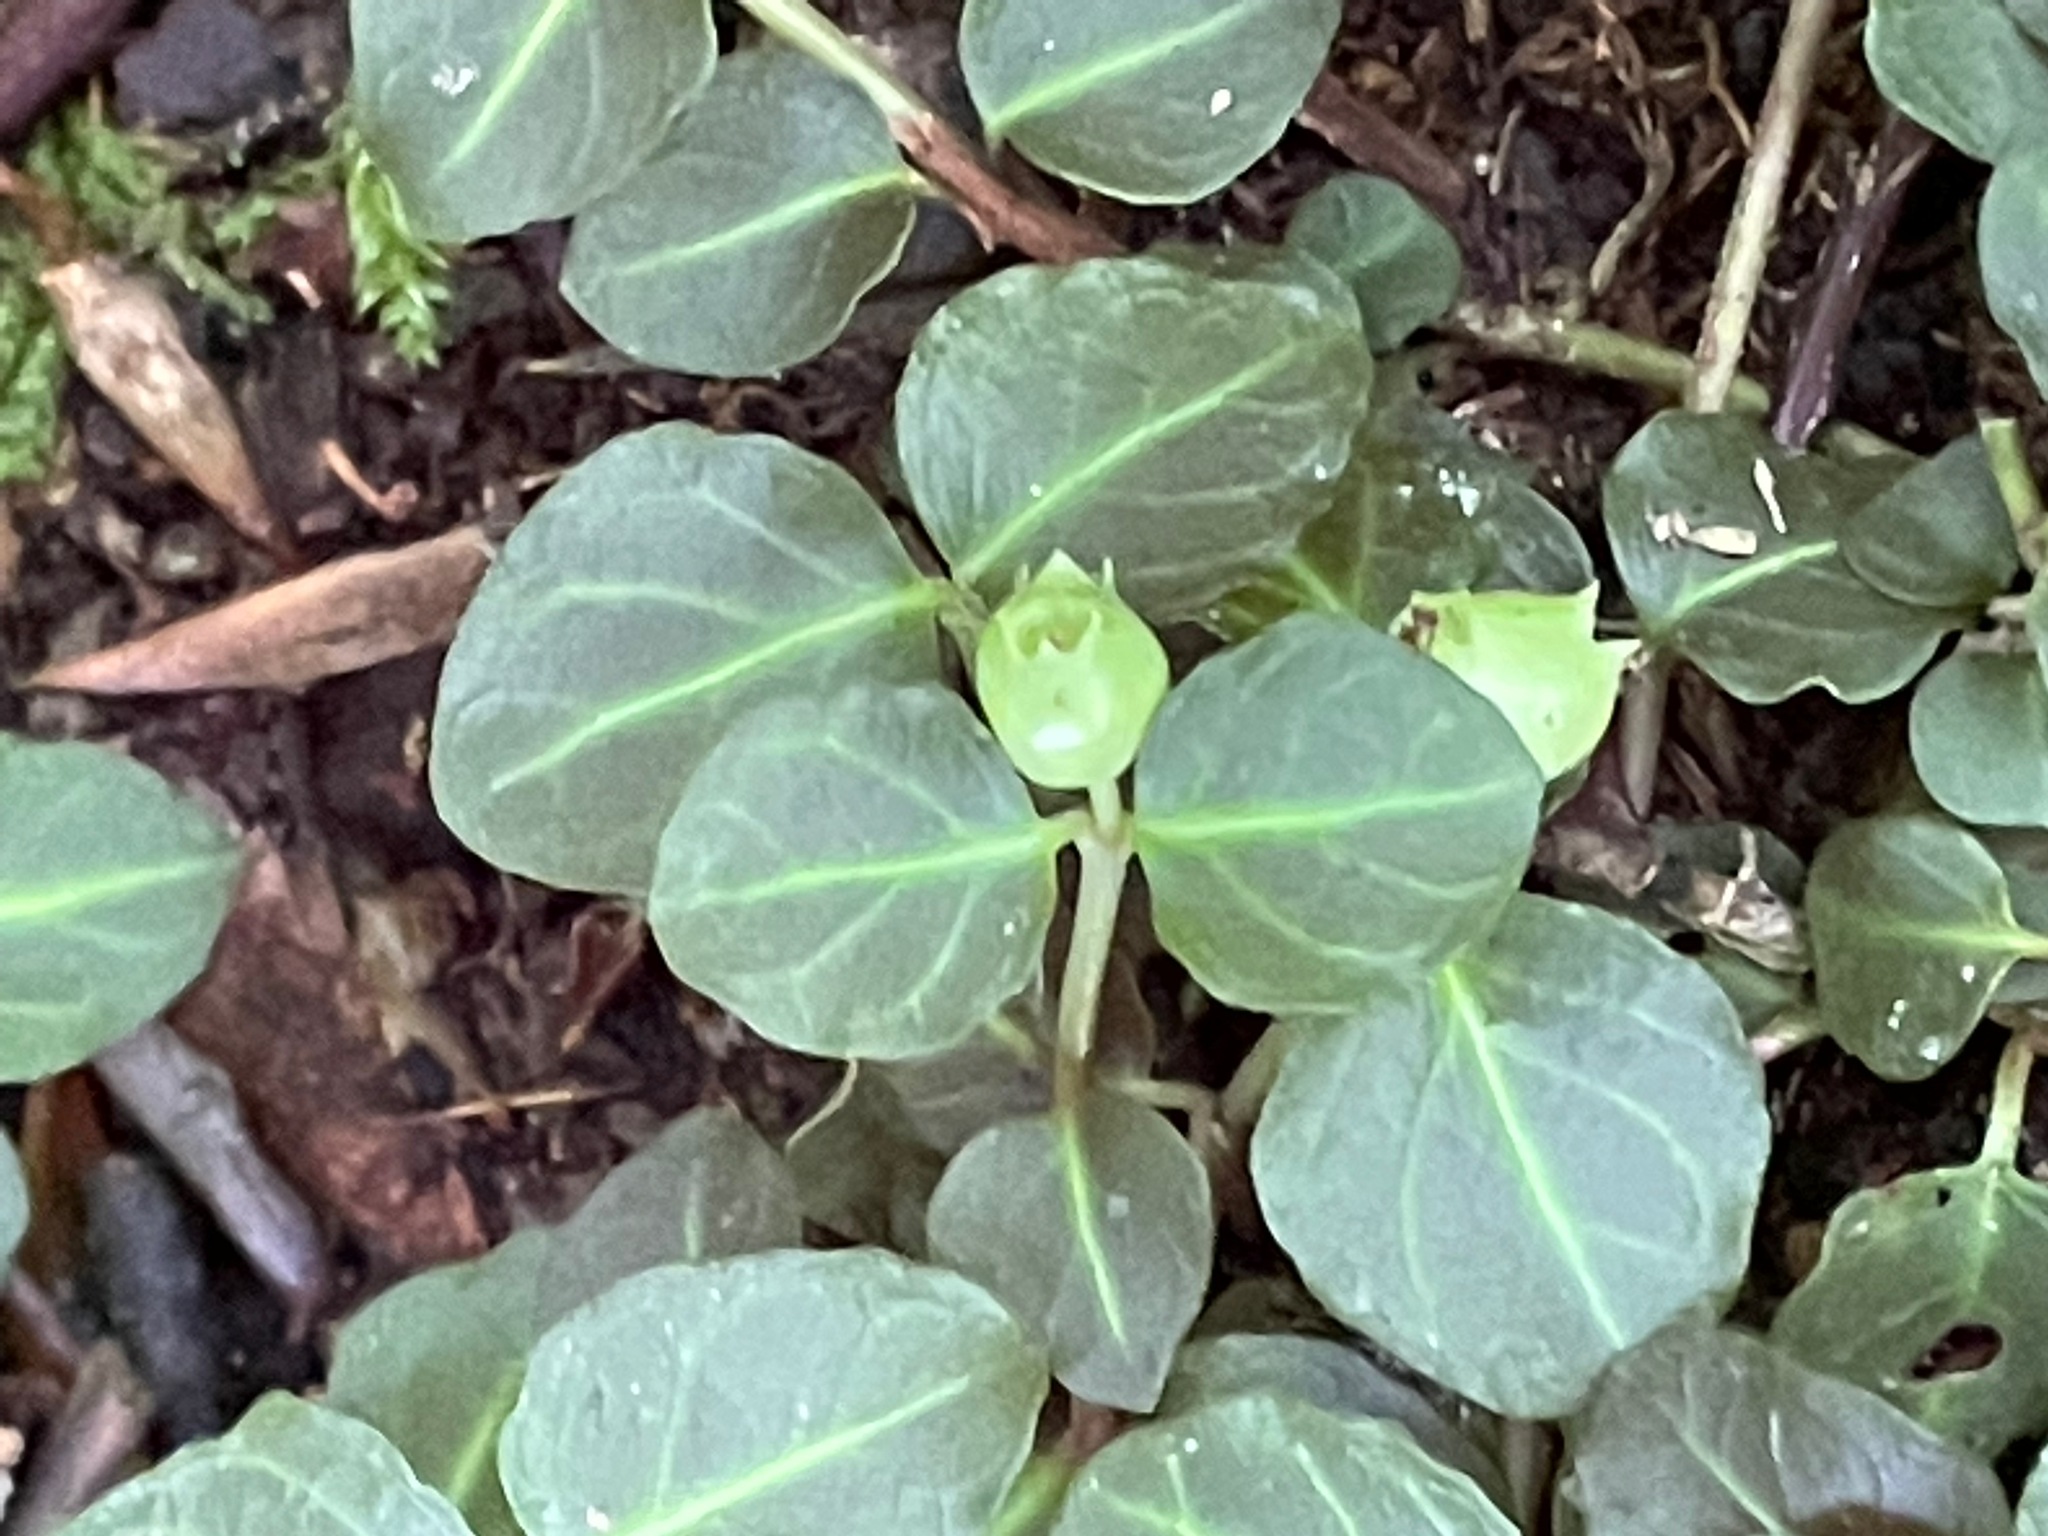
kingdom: Plantae
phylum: Tracheophyta
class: Magnoliopsida
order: Gentianales
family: Rubiaceae
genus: Mitchella
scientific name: Mitchella repens
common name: Partridge-berry
